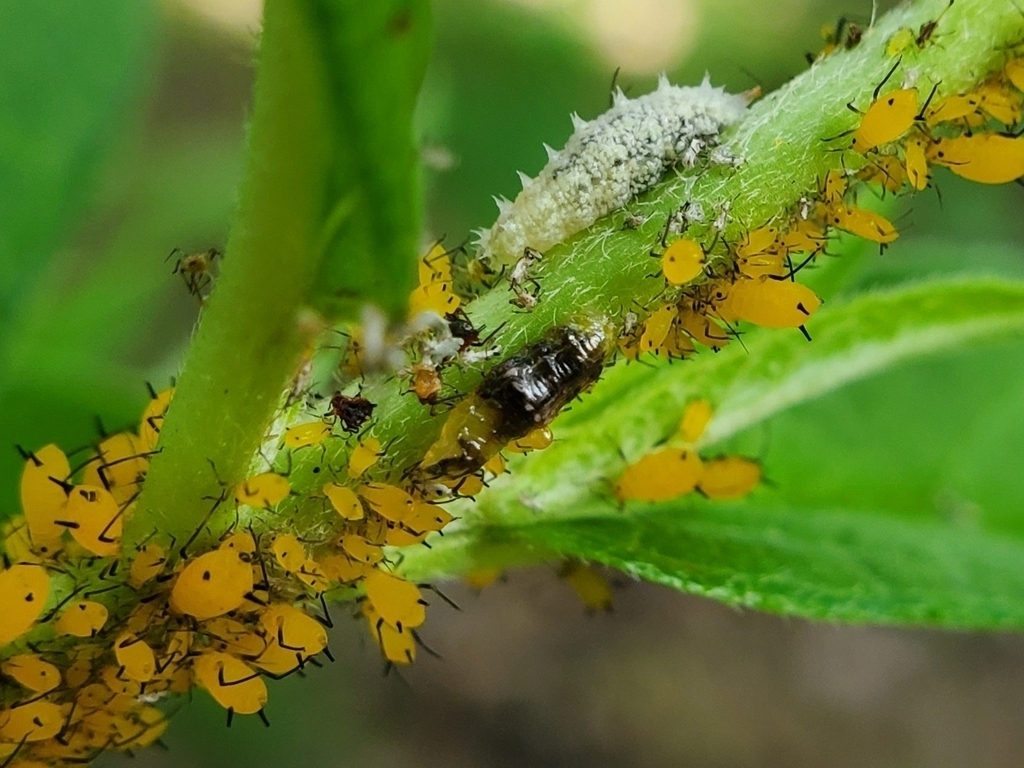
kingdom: Animalia
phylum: Arthropoda
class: Insecta
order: Diptera
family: Syrphidae
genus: Ocyptamus
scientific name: Ocyptamus fuscipennis
